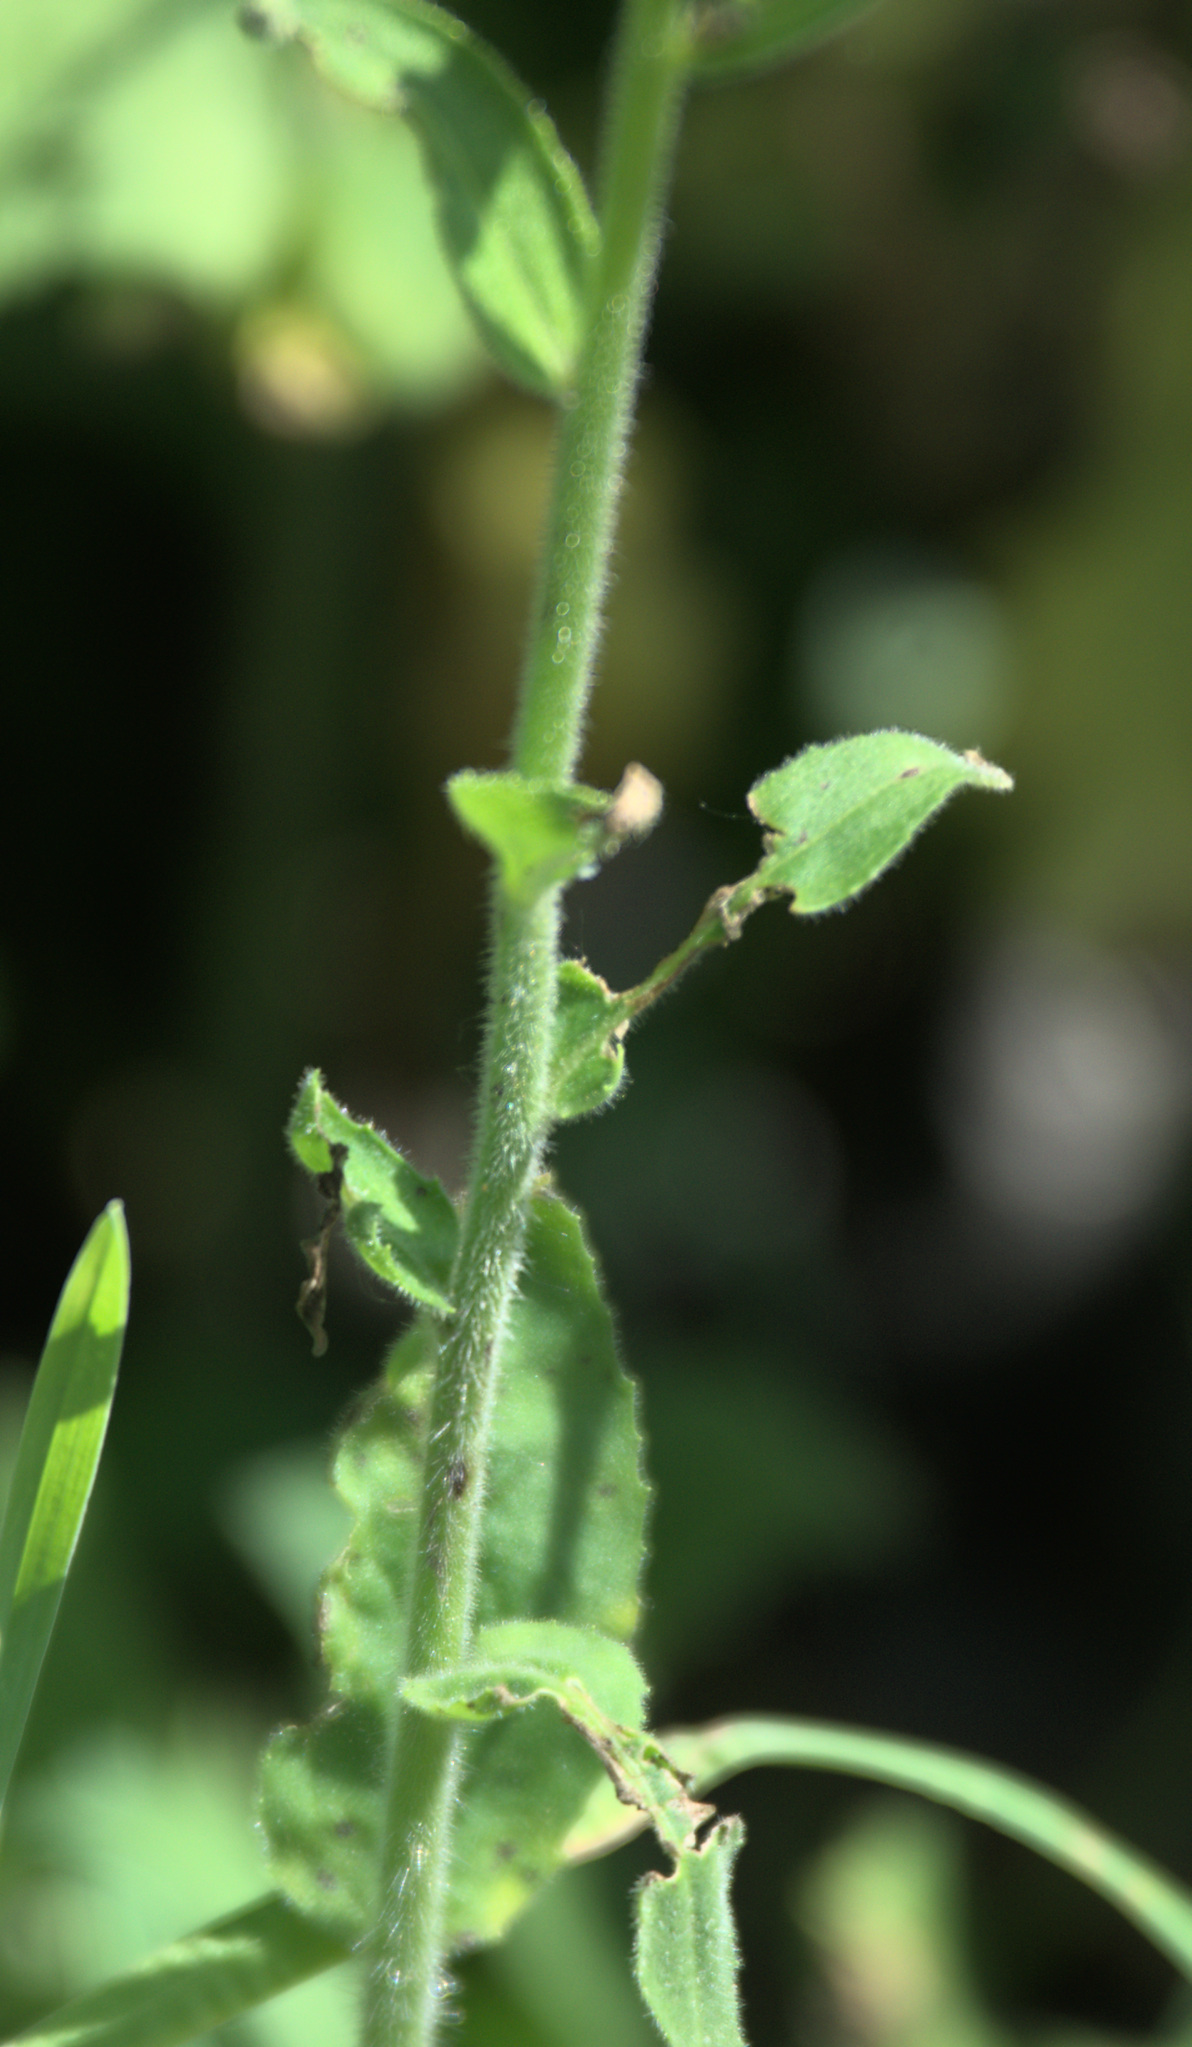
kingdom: Plantae
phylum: Tracheophyta
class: Magnoliopsida
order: Brassicales
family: Brassicaceae
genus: Hesperis
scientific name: Hesperis sibirica
